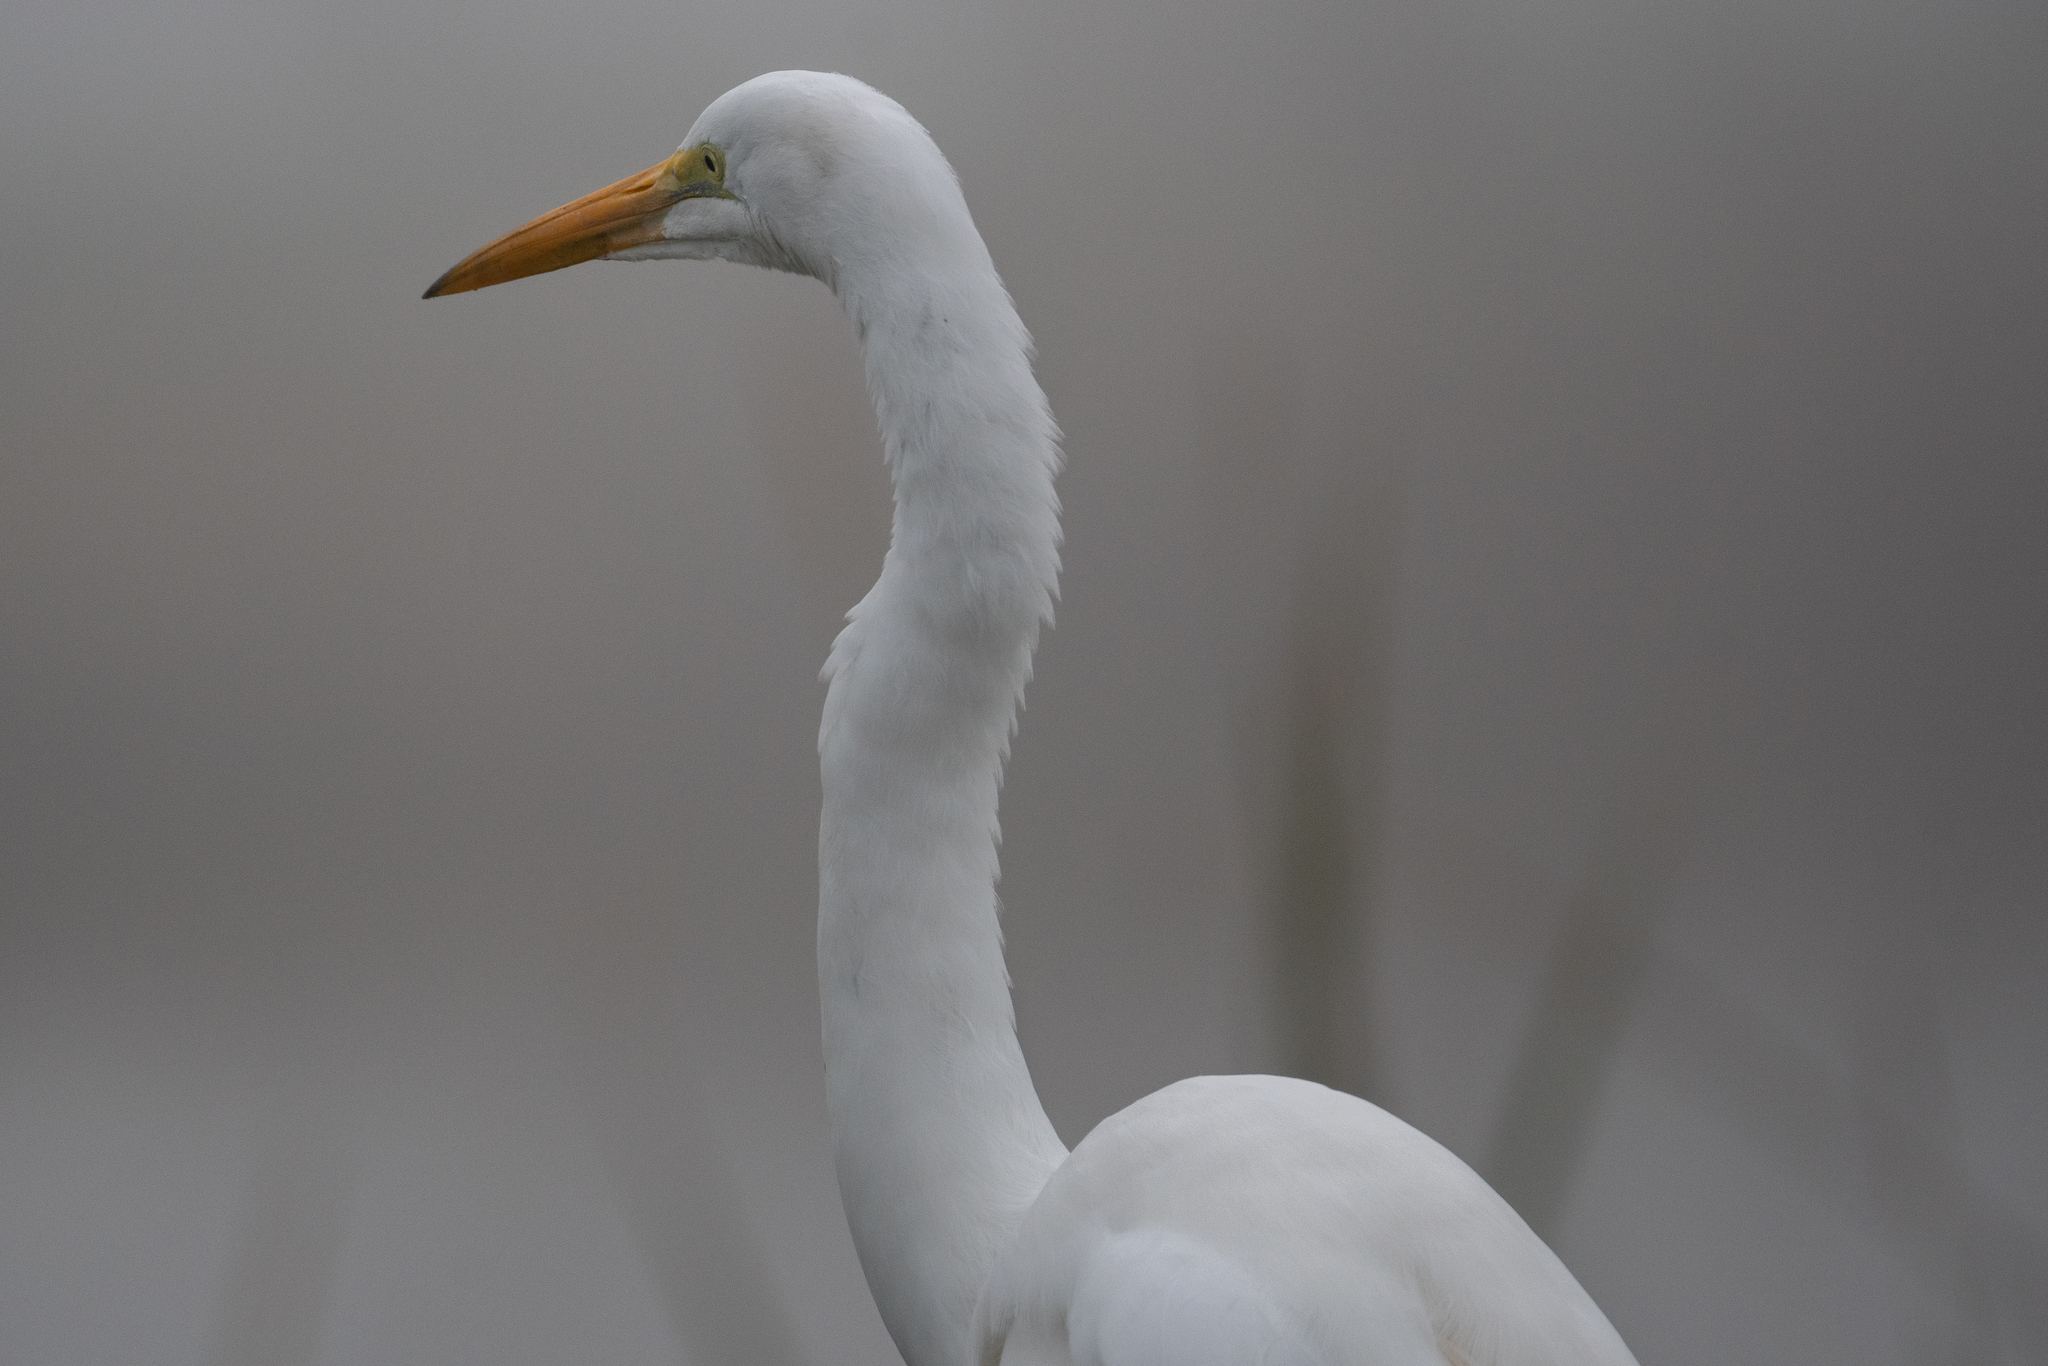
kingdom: Animalia
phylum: Chordata
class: Aves
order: Pelecaniformes
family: Ardeidae
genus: Ardea
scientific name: Ardea alba
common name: Great egret
